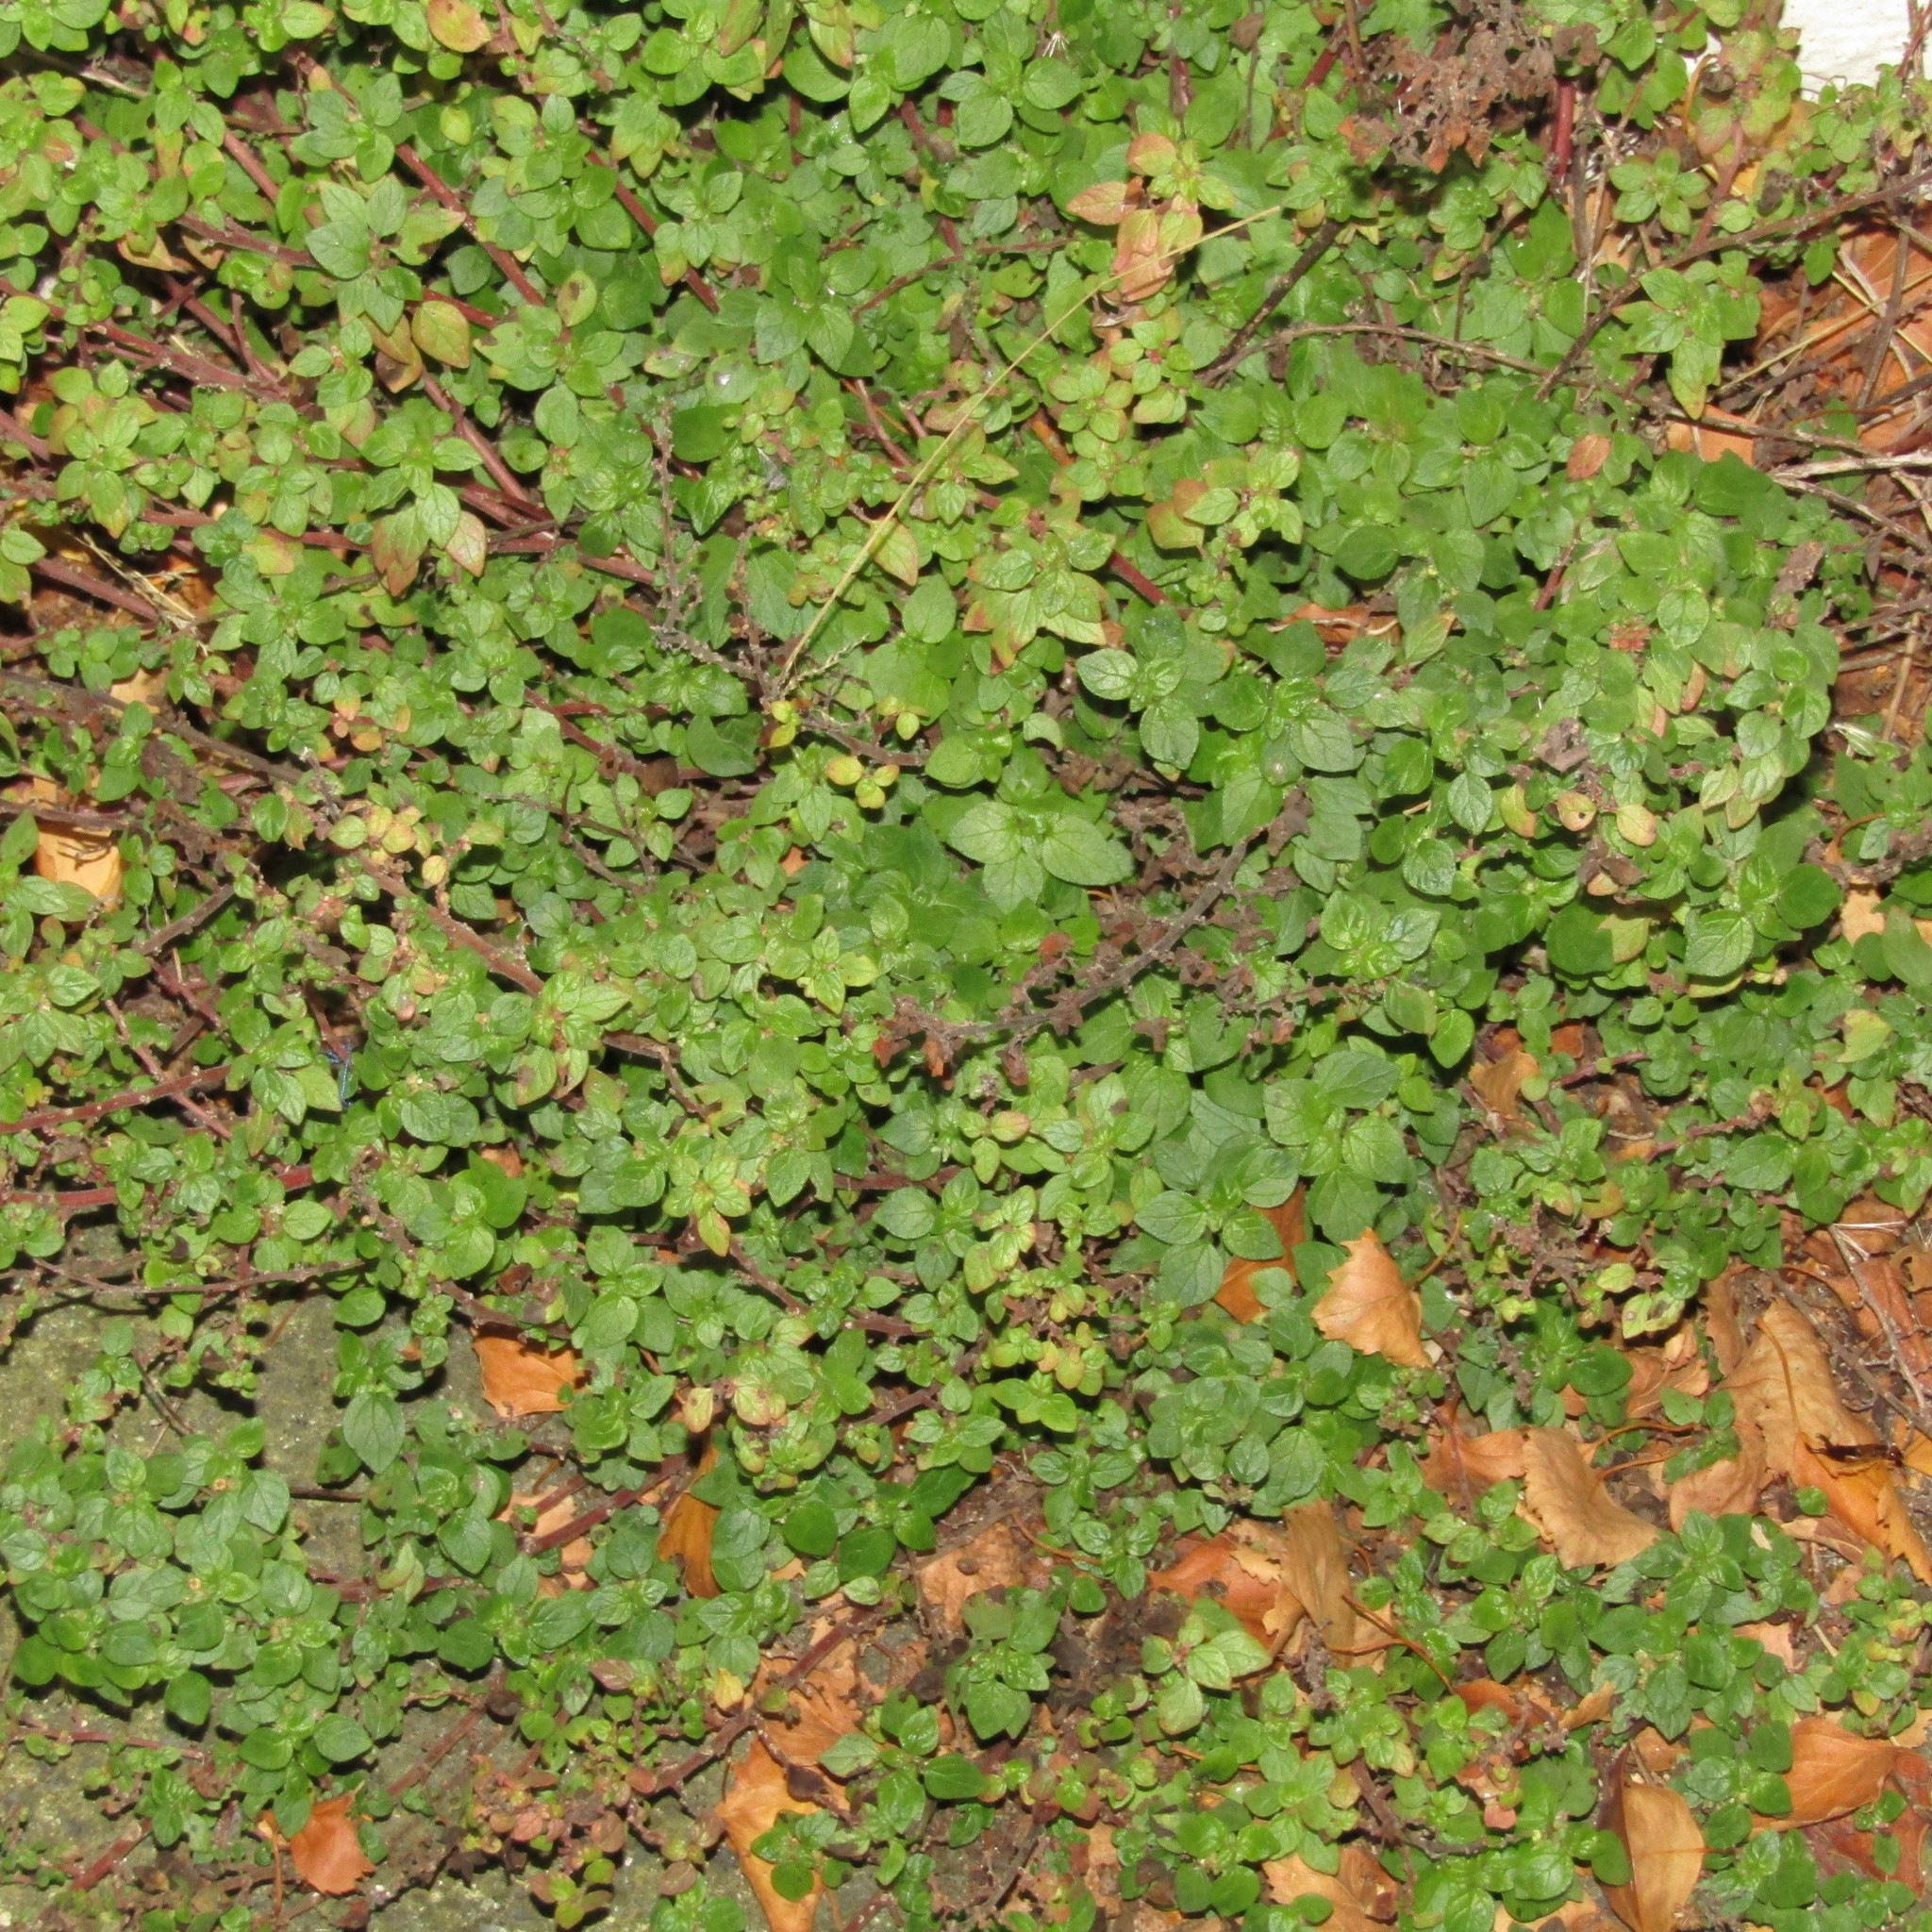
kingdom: Plantae
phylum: Tracheophyta
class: Magnoliopsida
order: Rosales
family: Urticaceae
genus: Parietaria
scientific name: Parietaria judaica
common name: Pellitory-of-the-wall
